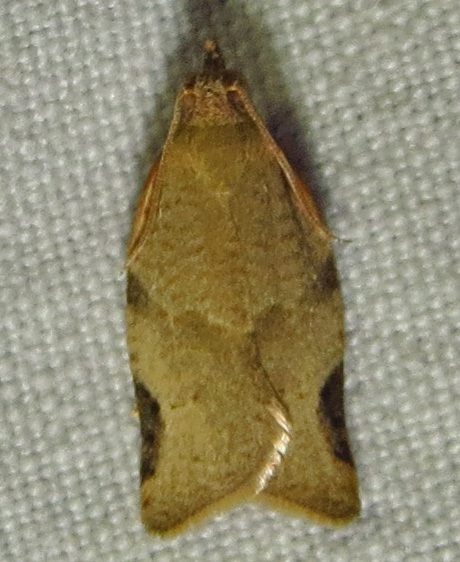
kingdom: Animalia
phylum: Arthropoda
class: Insecta
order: Lepidoptera
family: Tortricidae
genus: Clepsis
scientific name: Clepsis virescana
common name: Greenish apple moth
